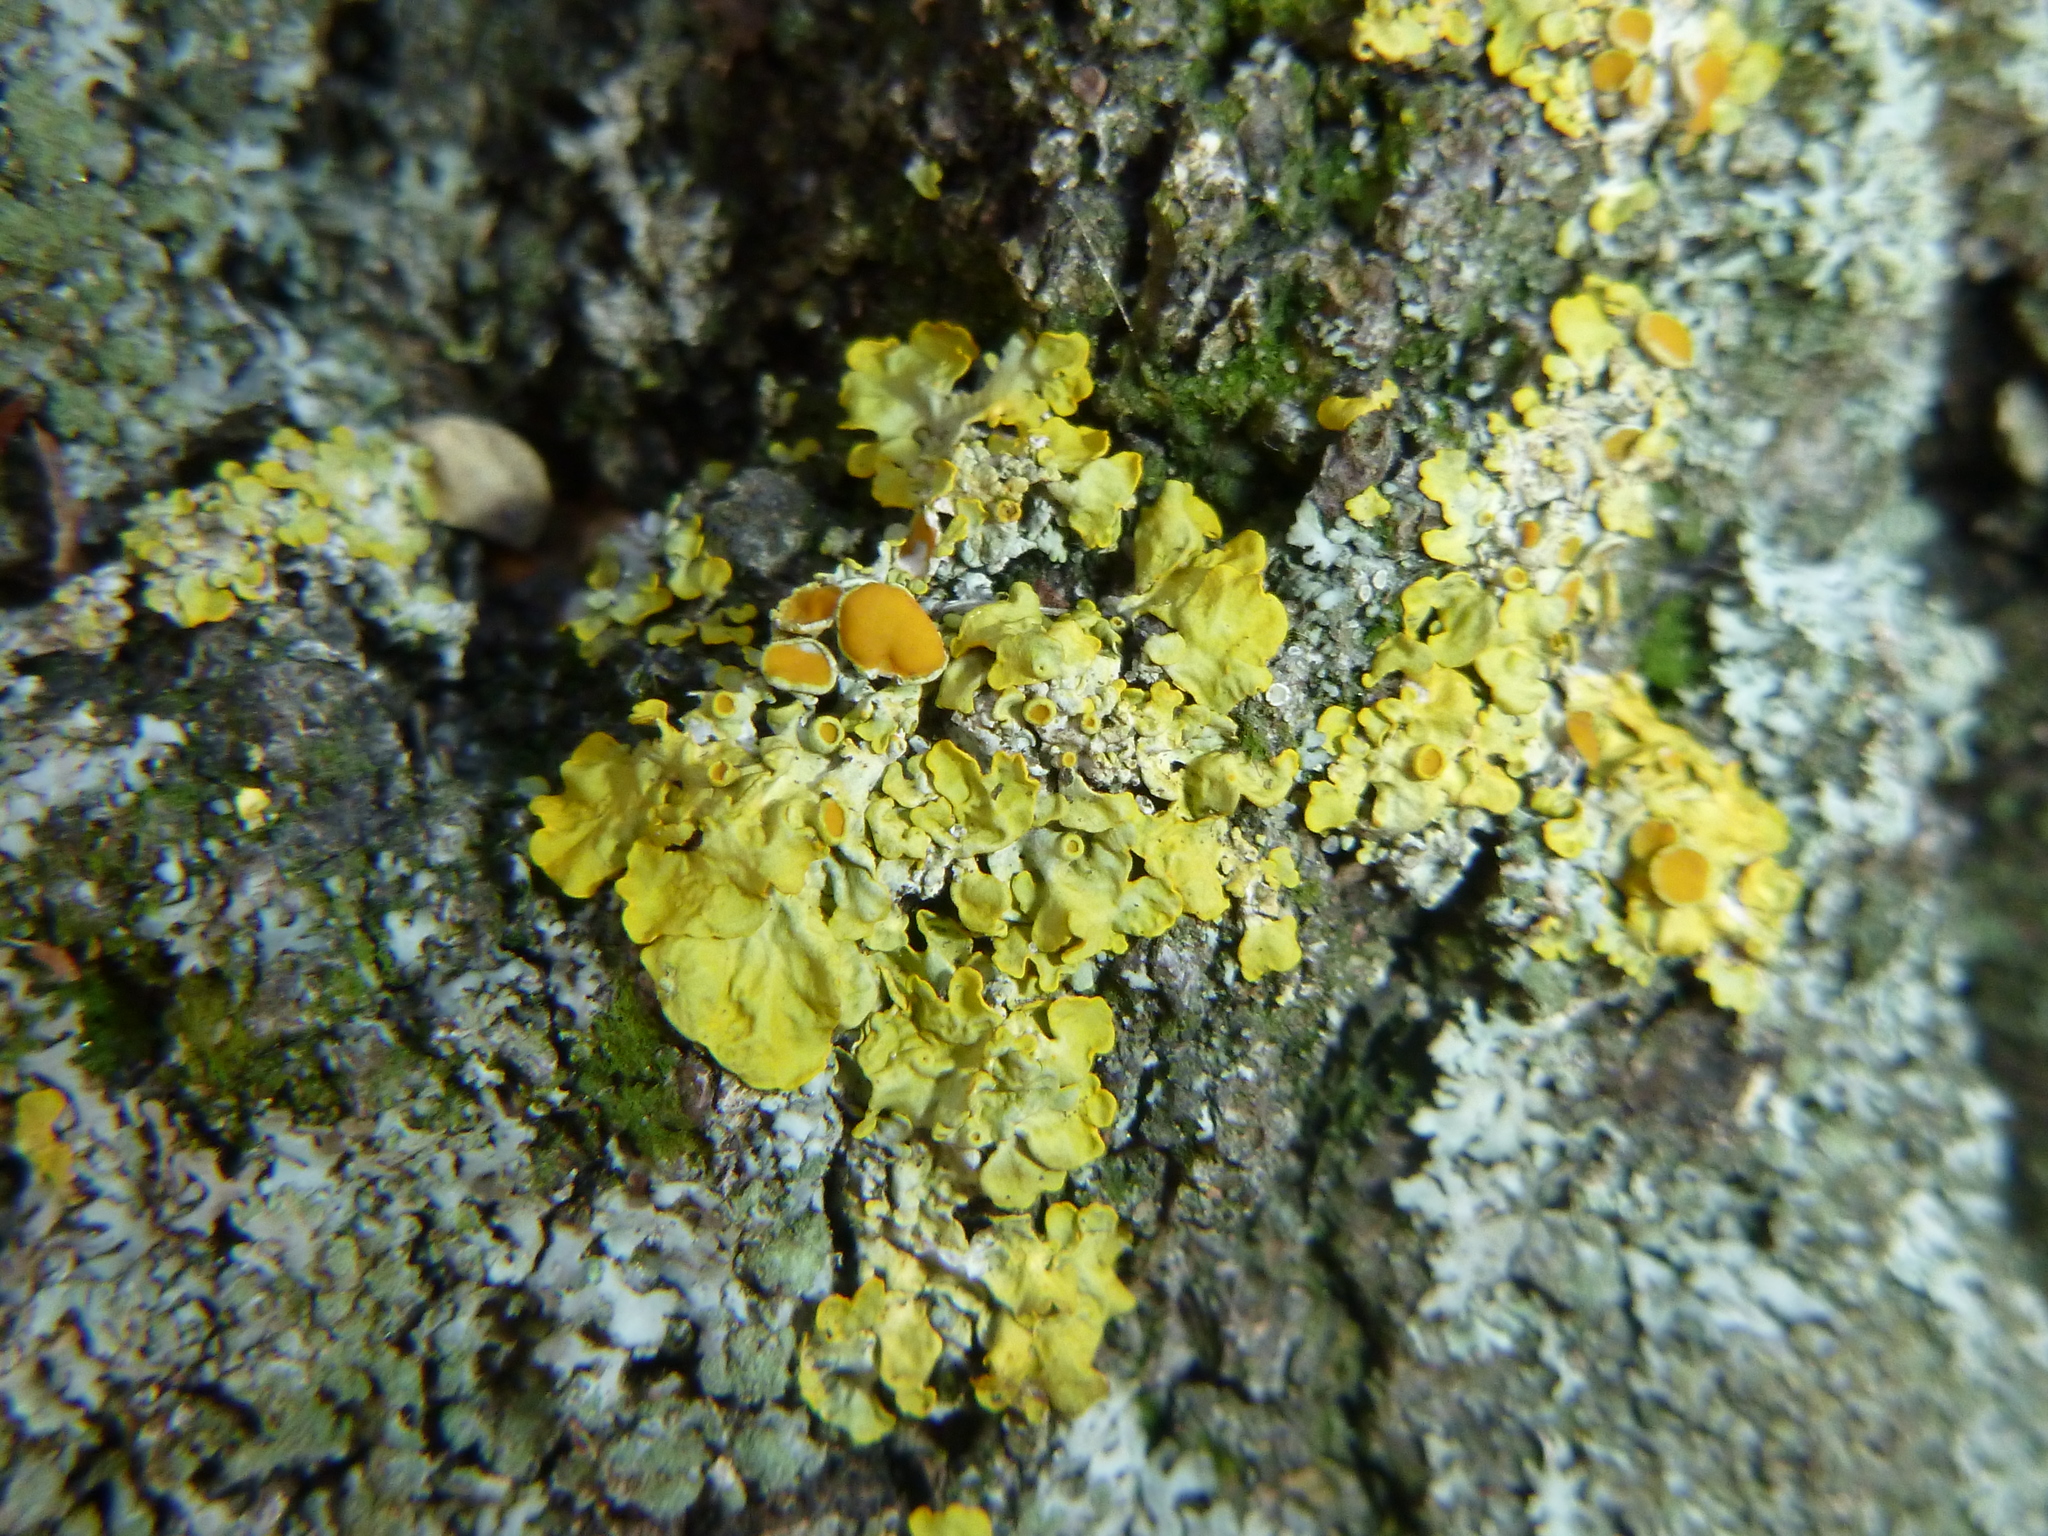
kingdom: Fungi
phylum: Ascomycota
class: Lecanoromycetes
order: Teloschistales
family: Teloschistaceae
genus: Xanthoria
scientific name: Xanthoria parietina
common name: Common orange lichen
